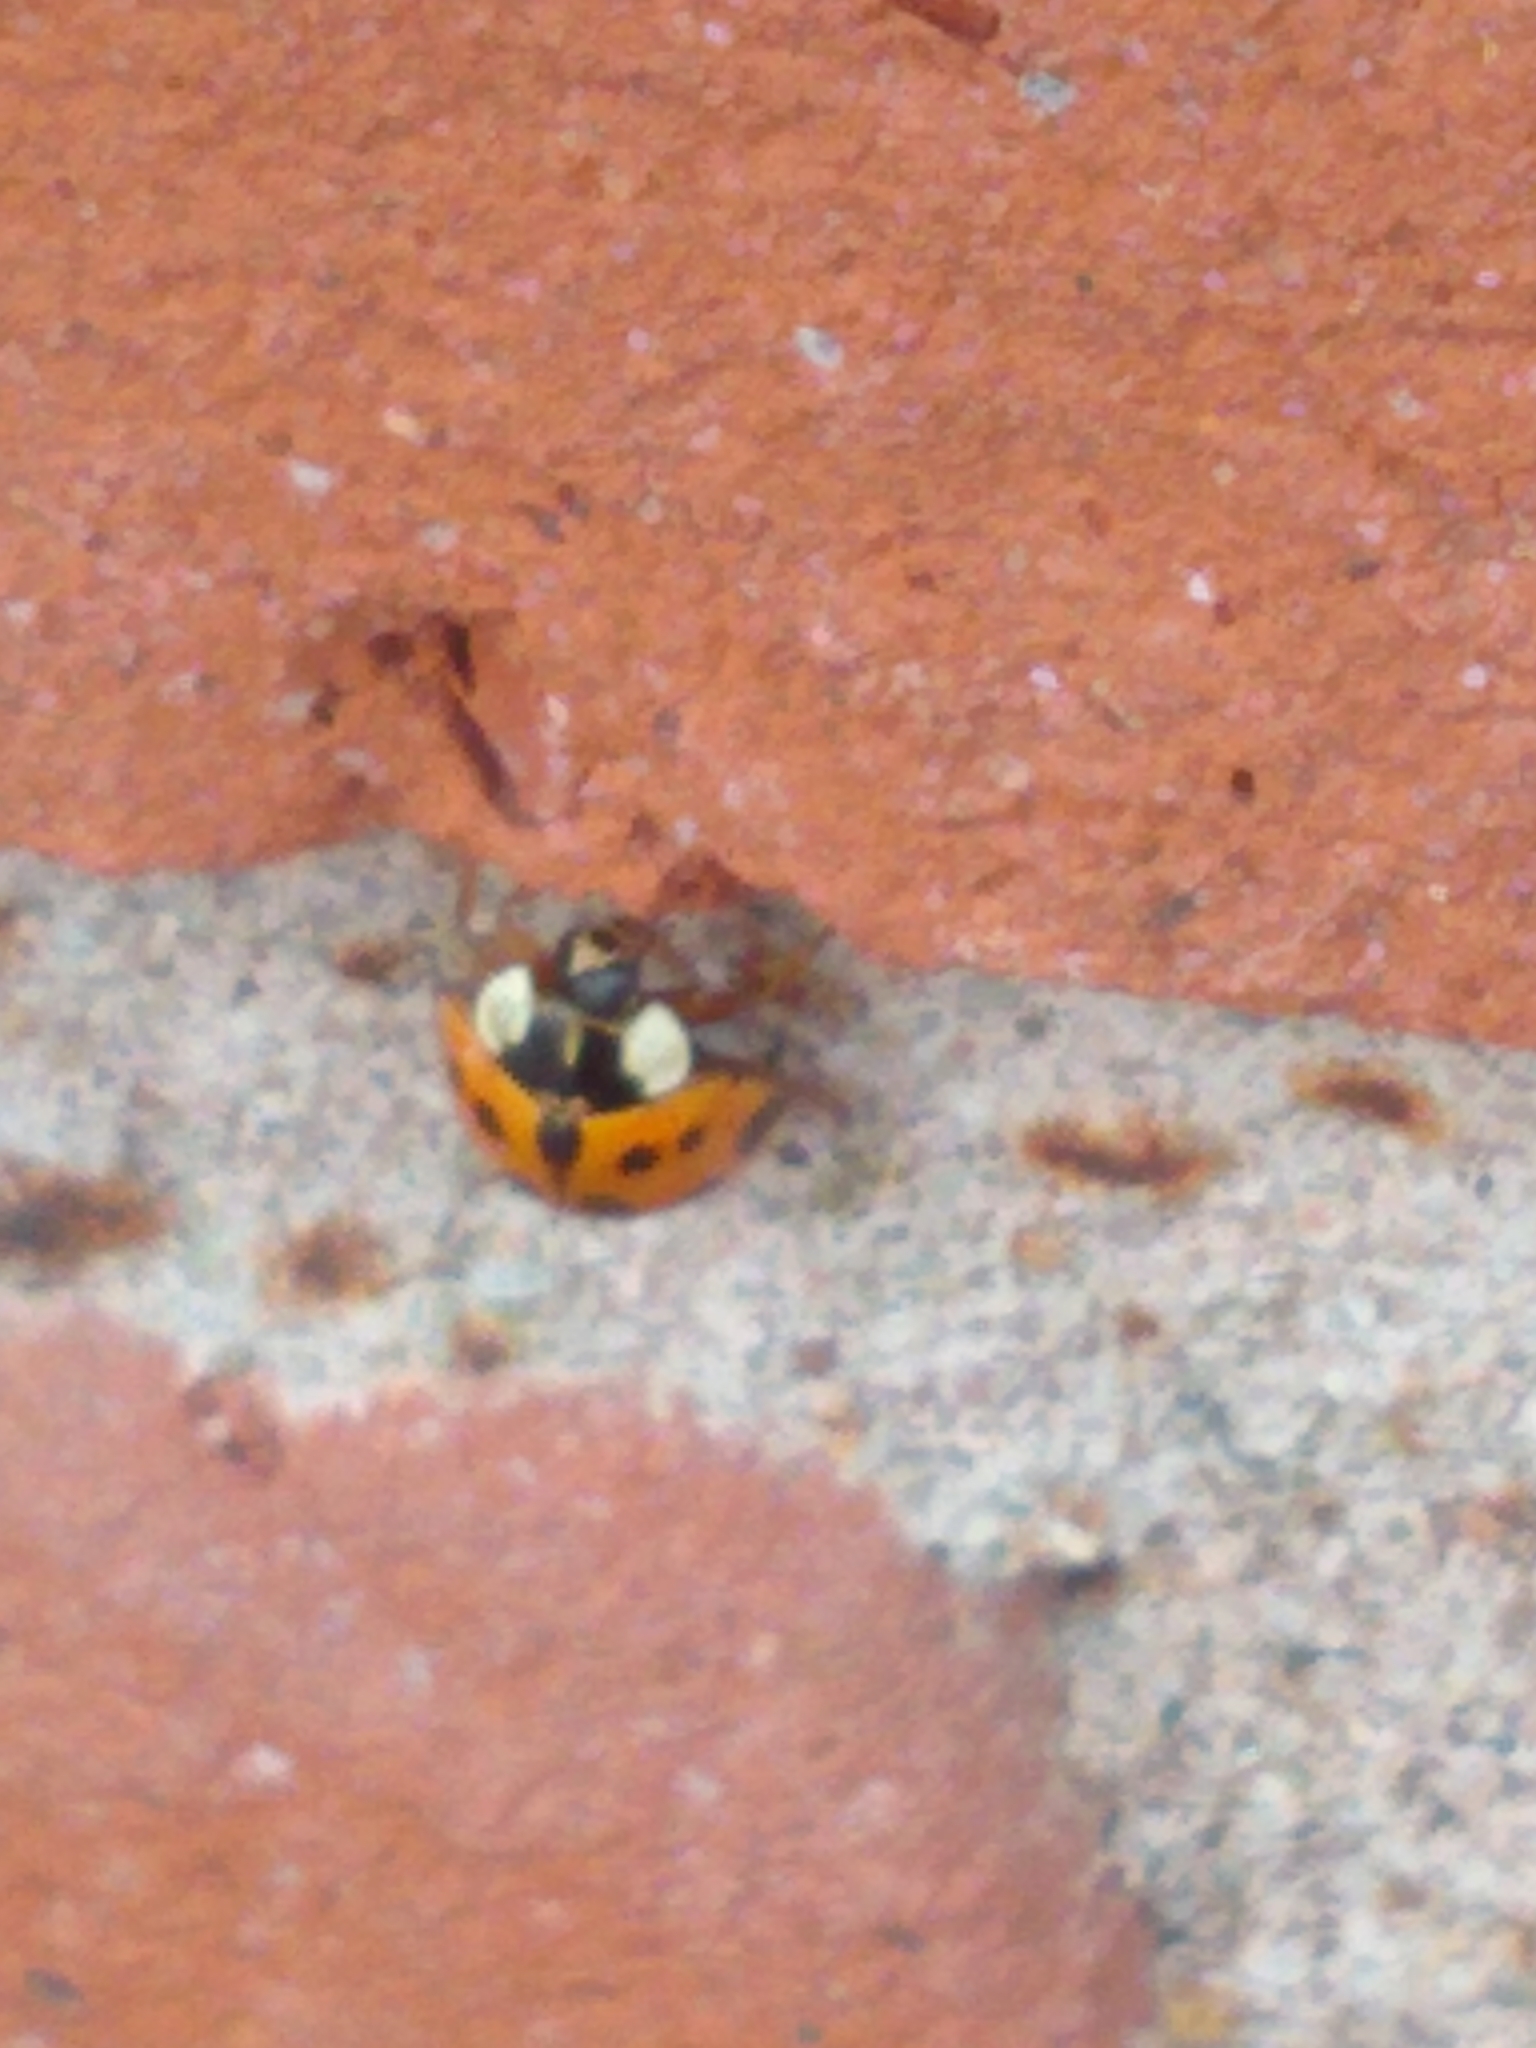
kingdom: Animalia
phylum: Arthropoda
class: Insecta
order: Coleoptera
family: Coccinellidae
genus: Harmonia
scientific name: Harmonia axyridis
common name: Harlequin ladybird
